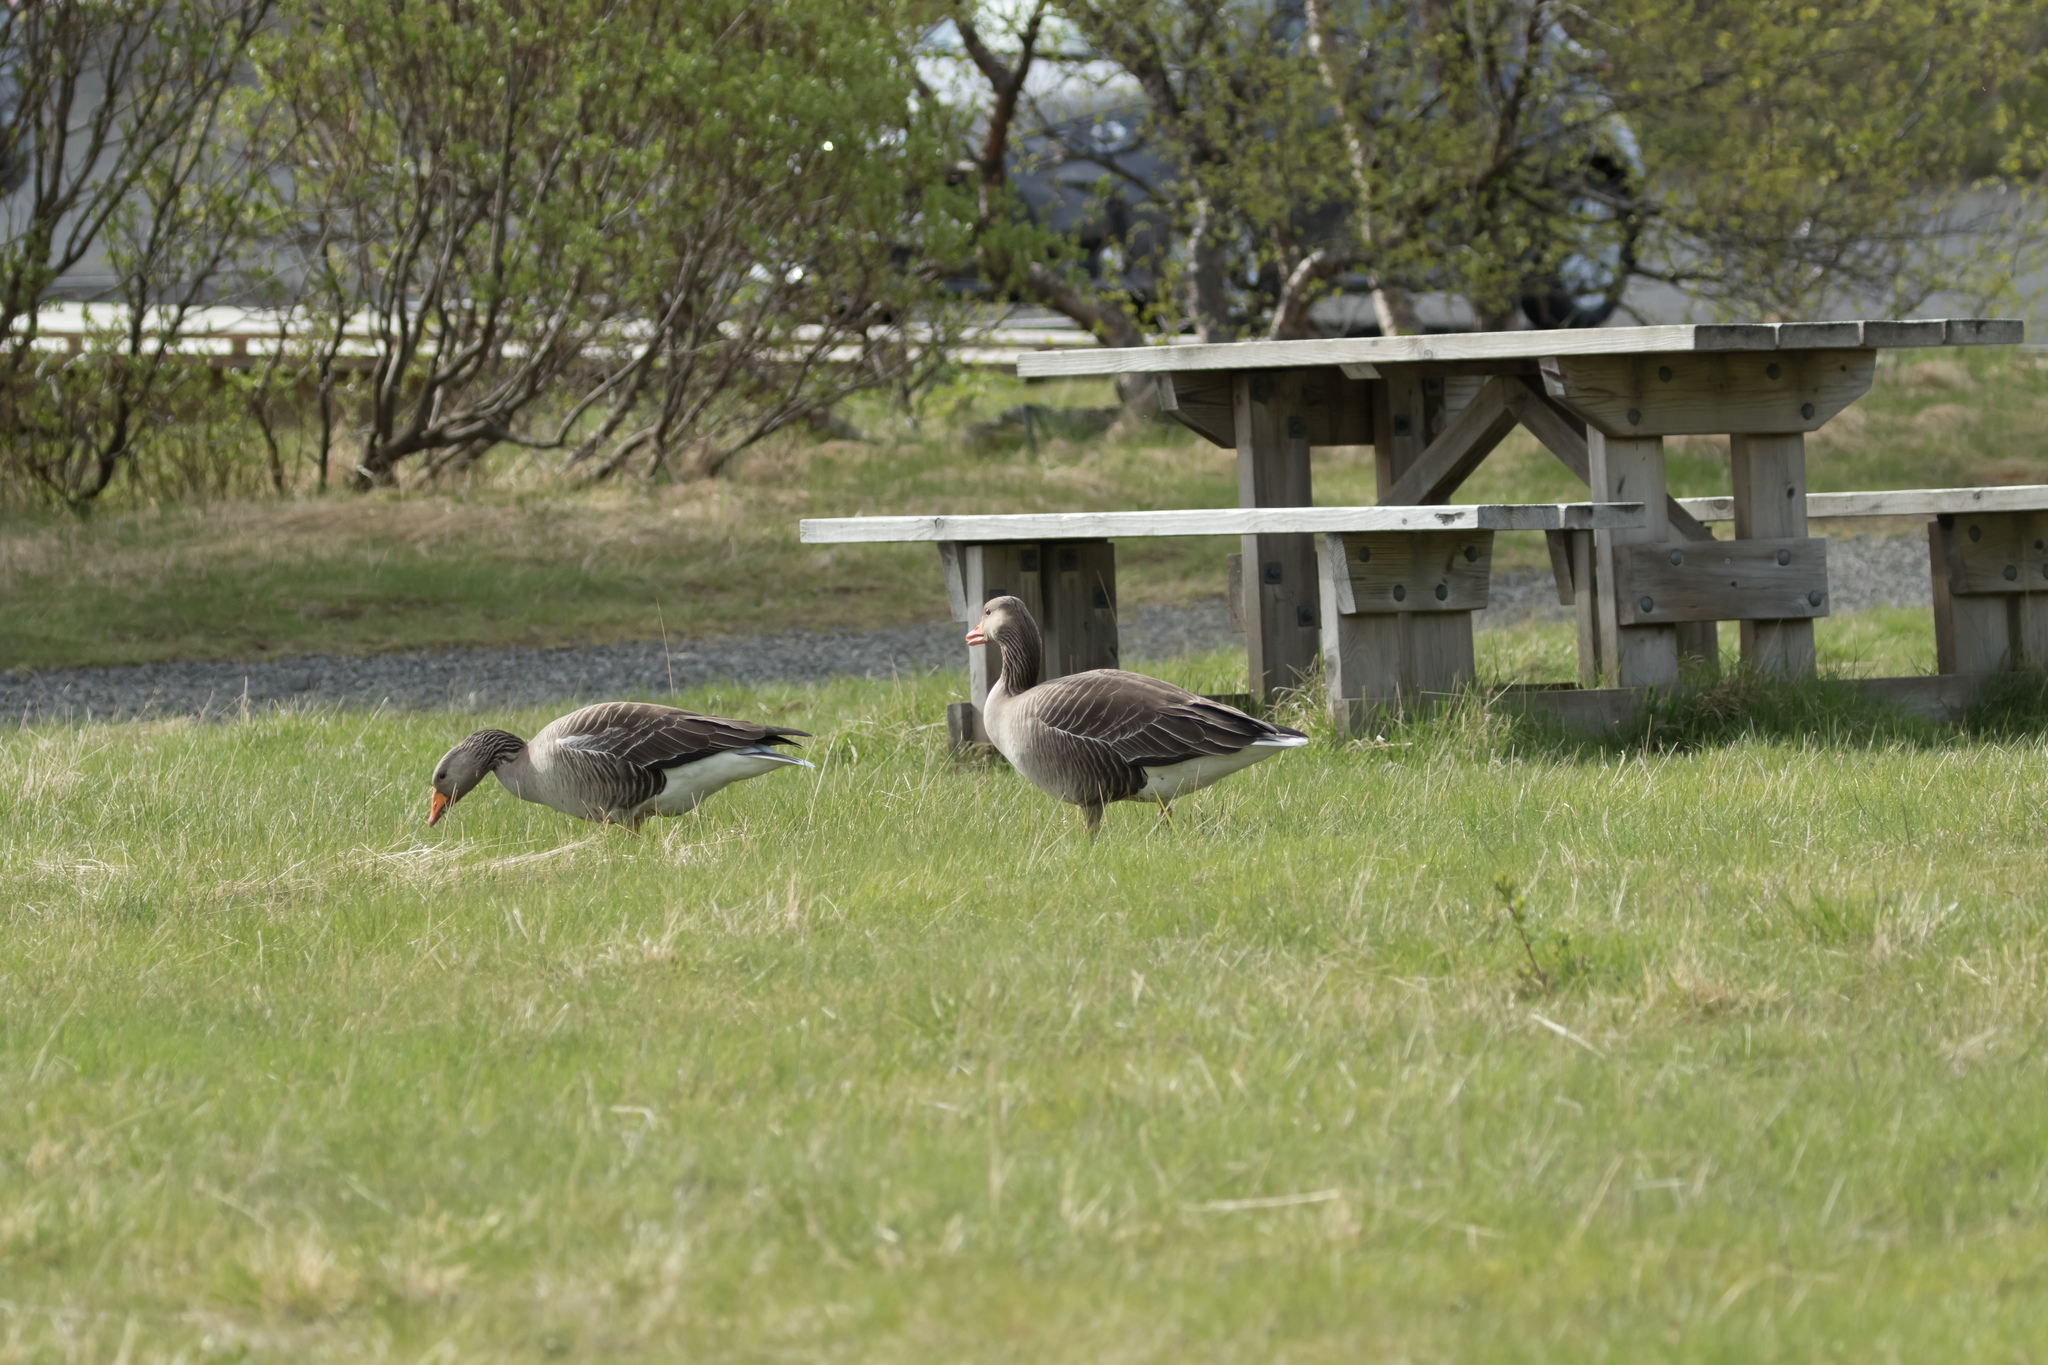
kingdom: Animalia
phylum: Chordata
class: Aves
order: Anseriformes
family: Anatidae
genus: Anser
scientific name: Anser anser
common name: Greylag goose
